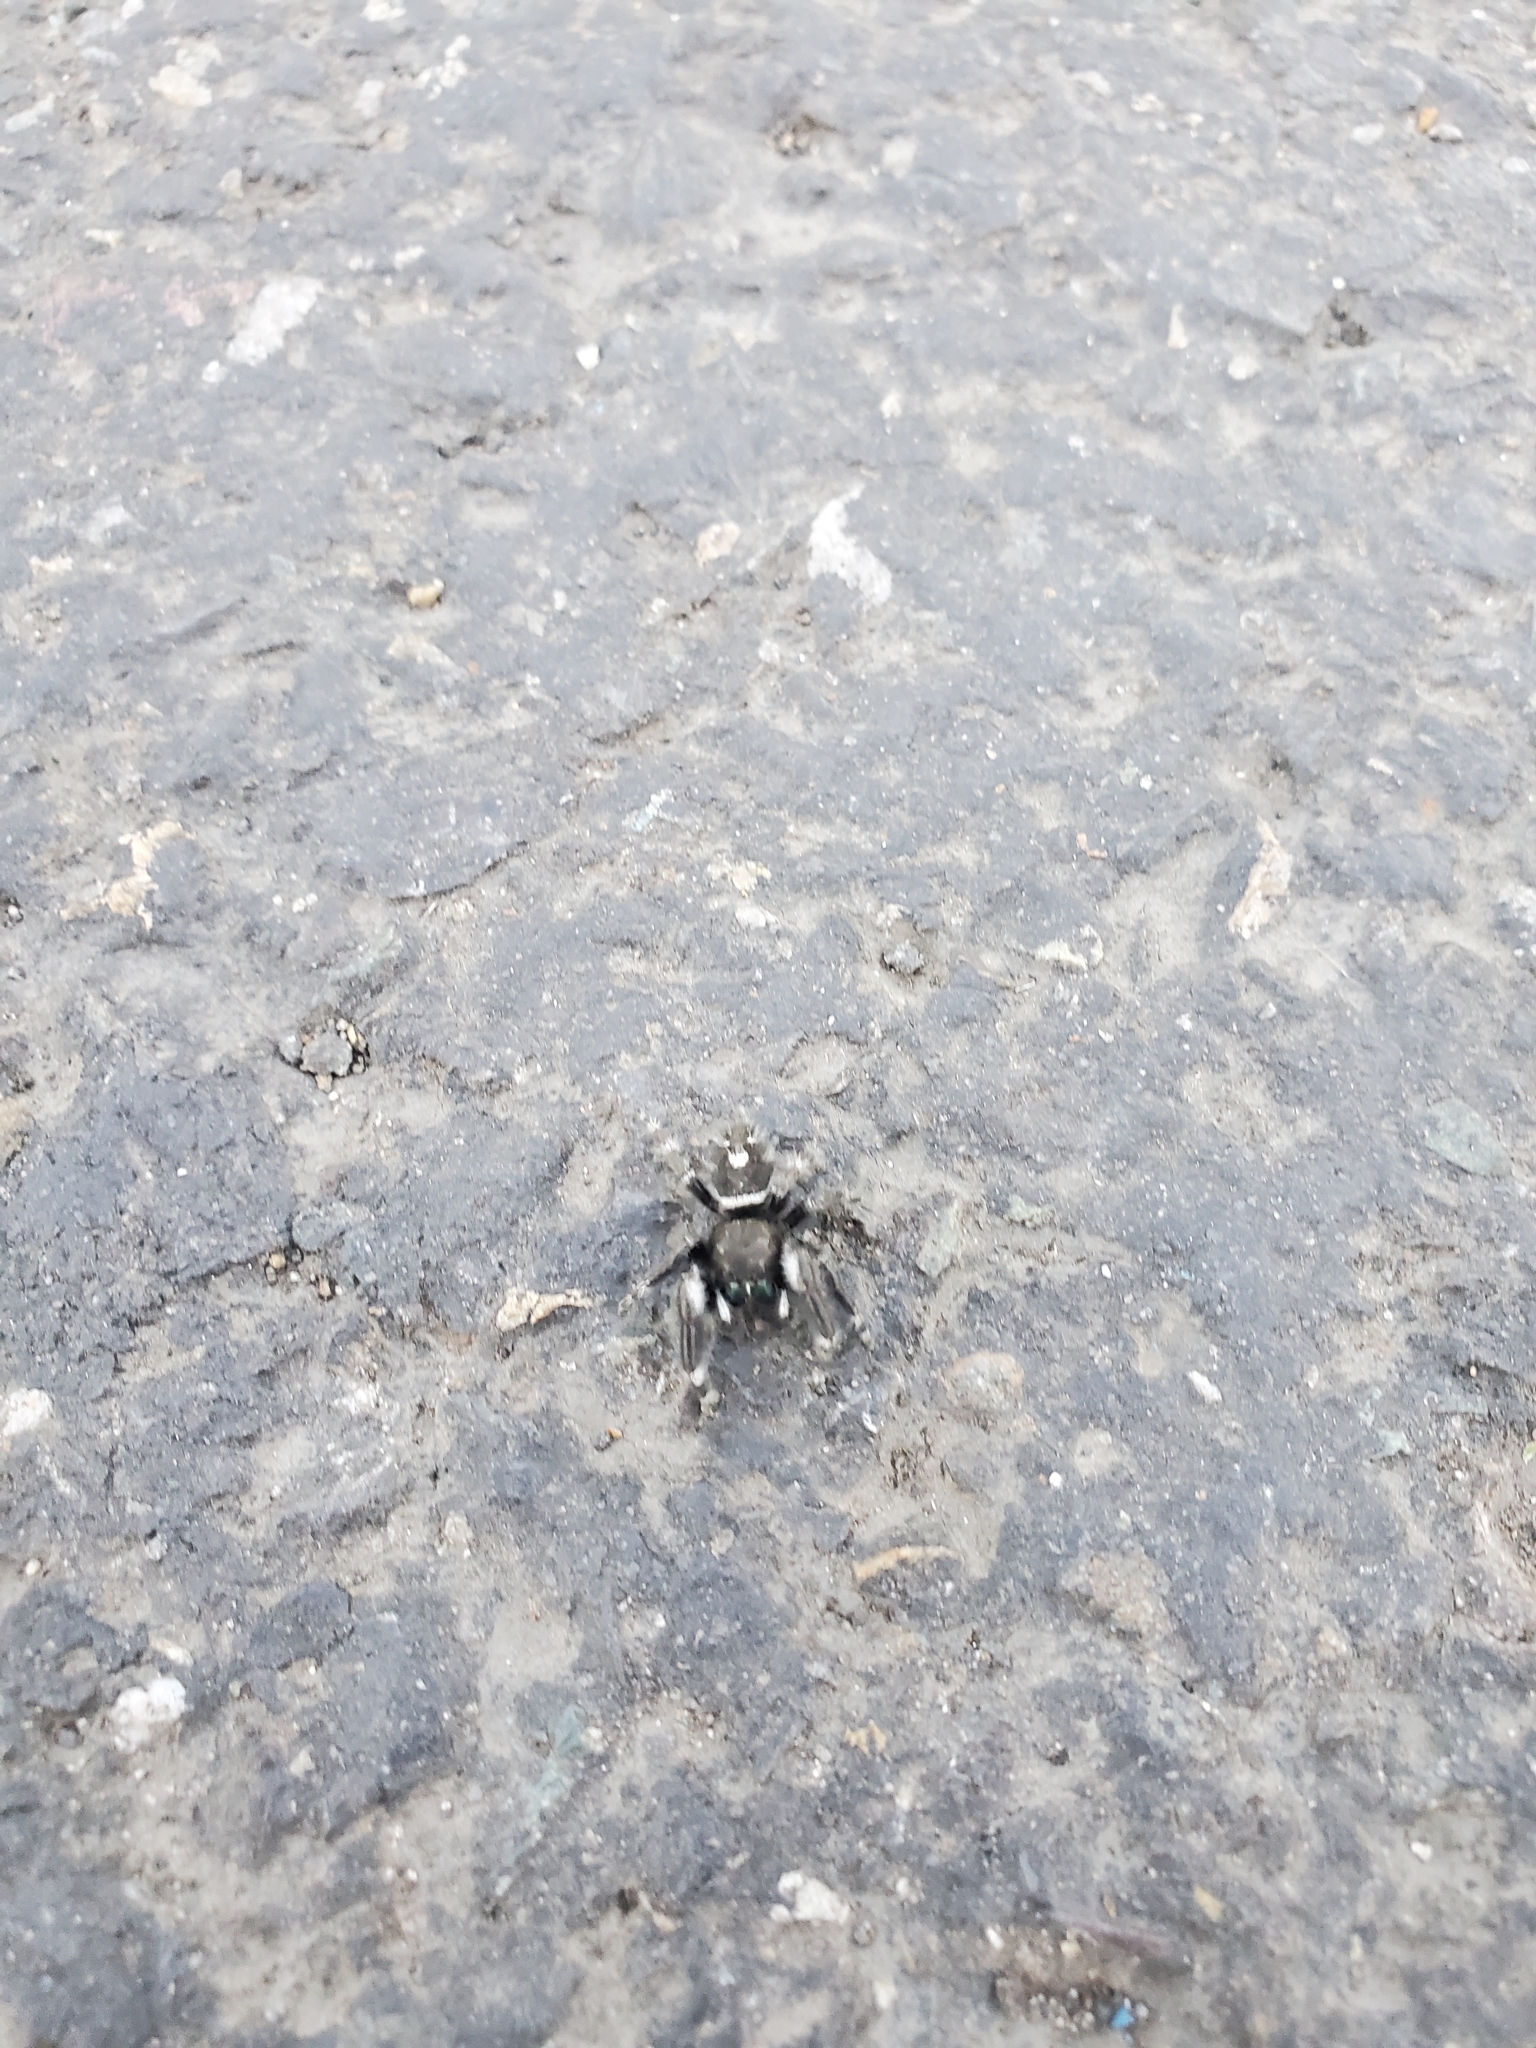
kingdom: Animalia
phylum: Arthropoda
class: Arachnida
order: Araneae
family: Salticidae
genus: Phidippus
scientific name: Phidippus audax
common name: Bold jumper
